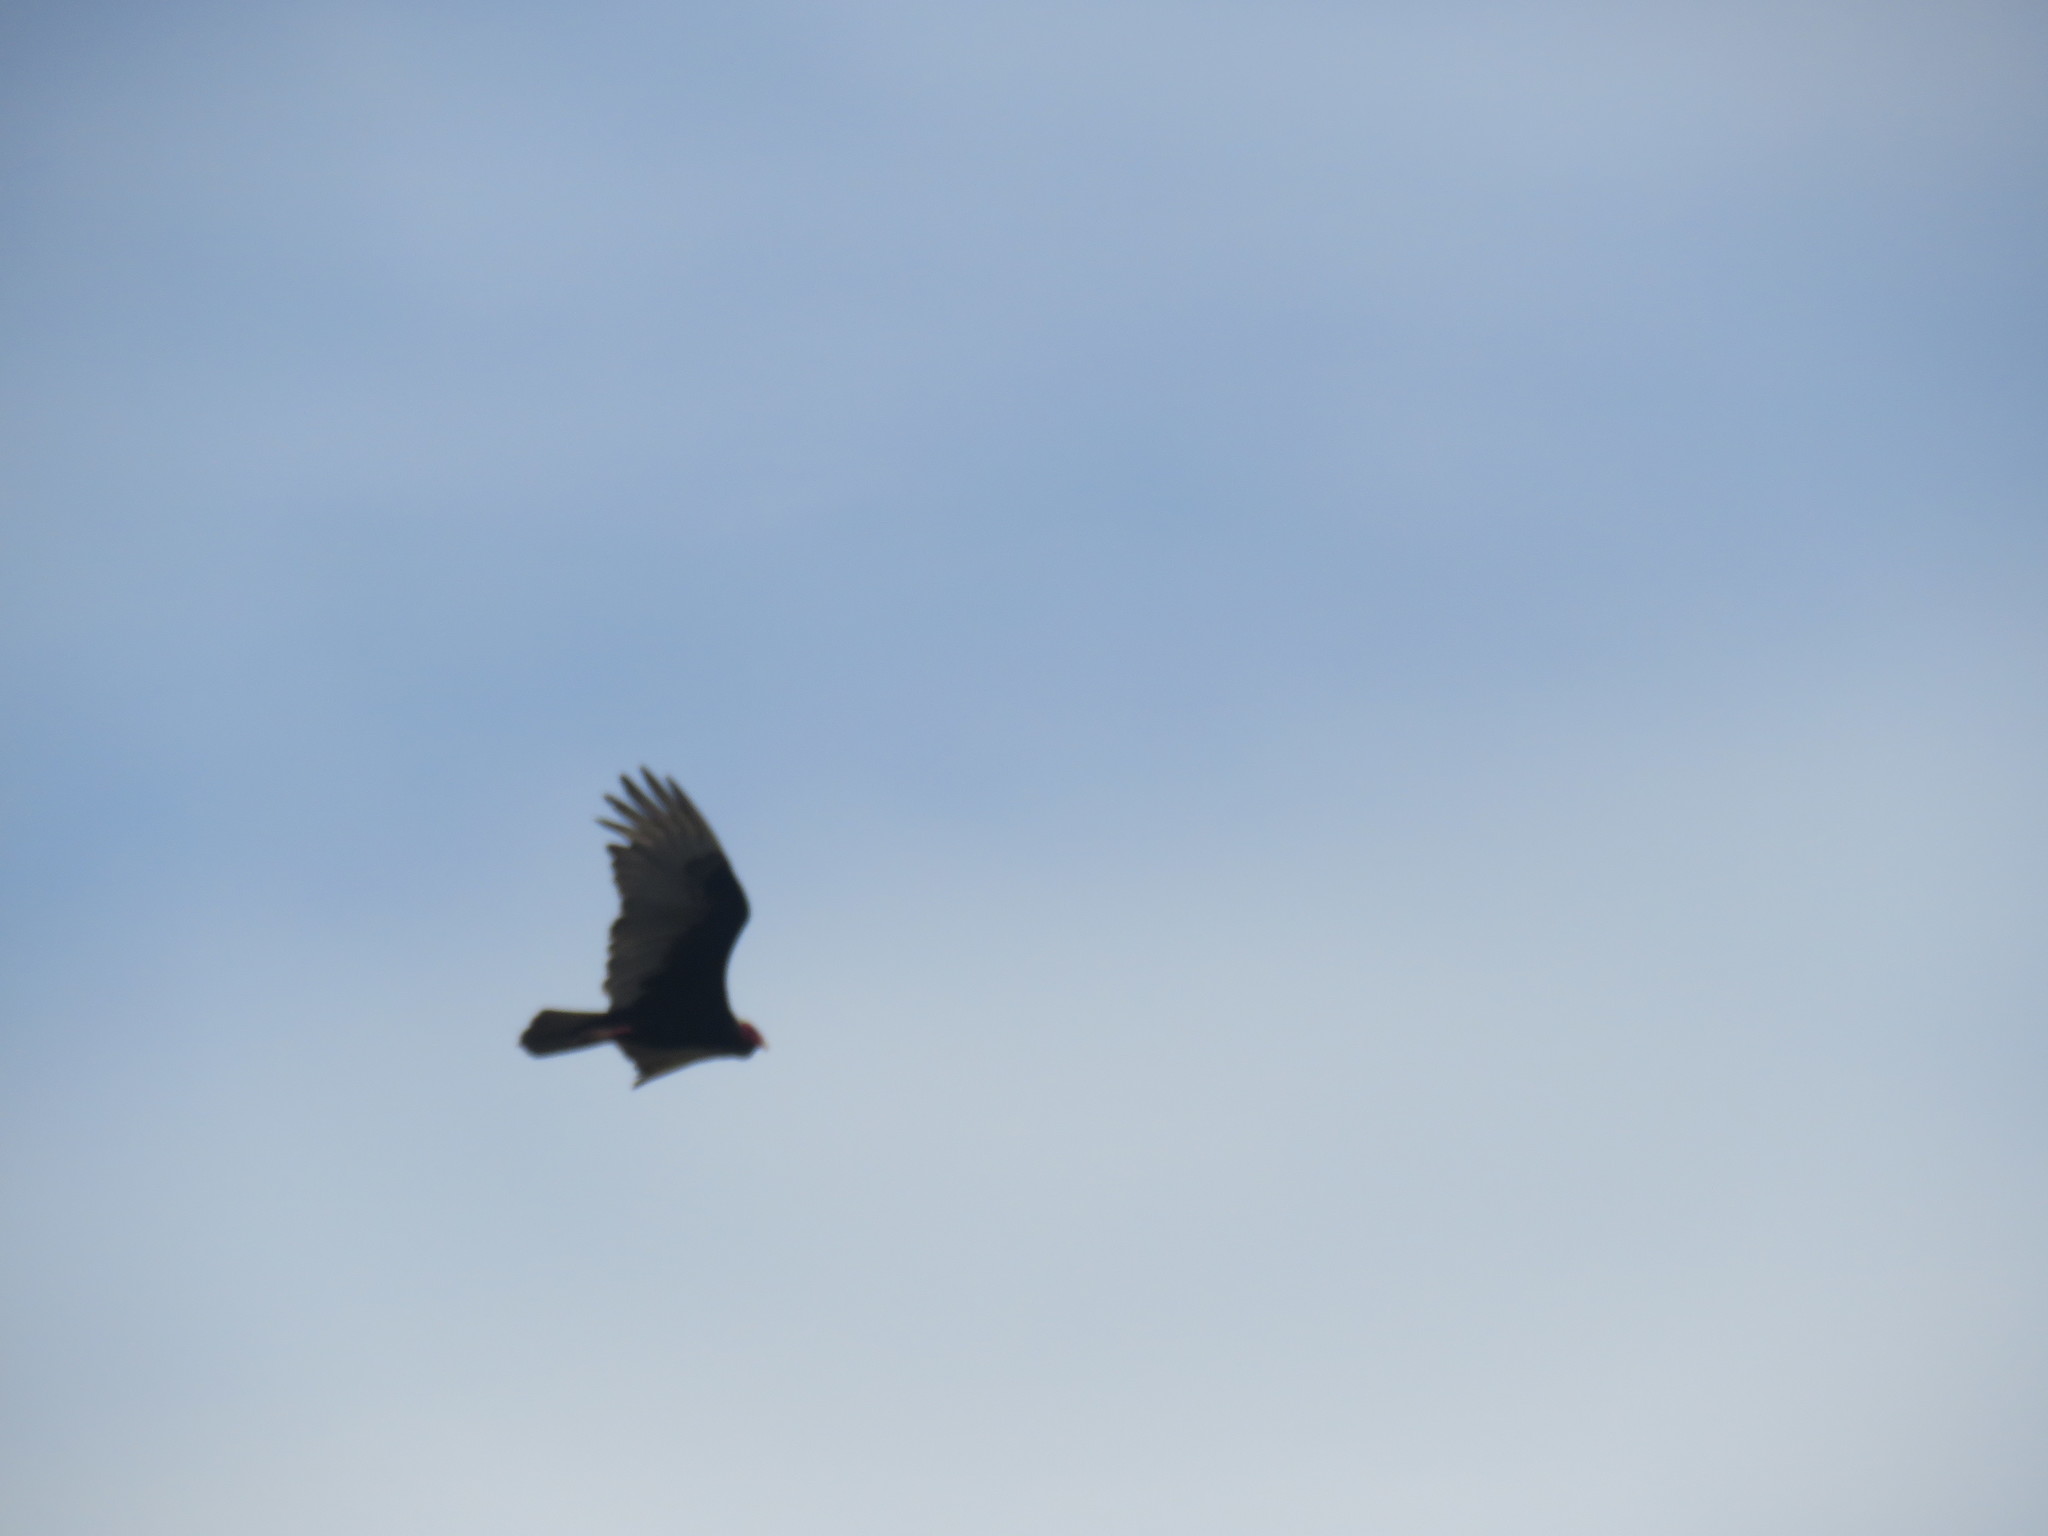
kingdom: Animalia
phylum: Chordata
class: Aves
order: Accipitriformes
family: Cathartidae
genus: Cathartes
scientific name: Cathartes aura
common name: Turkey vulture
